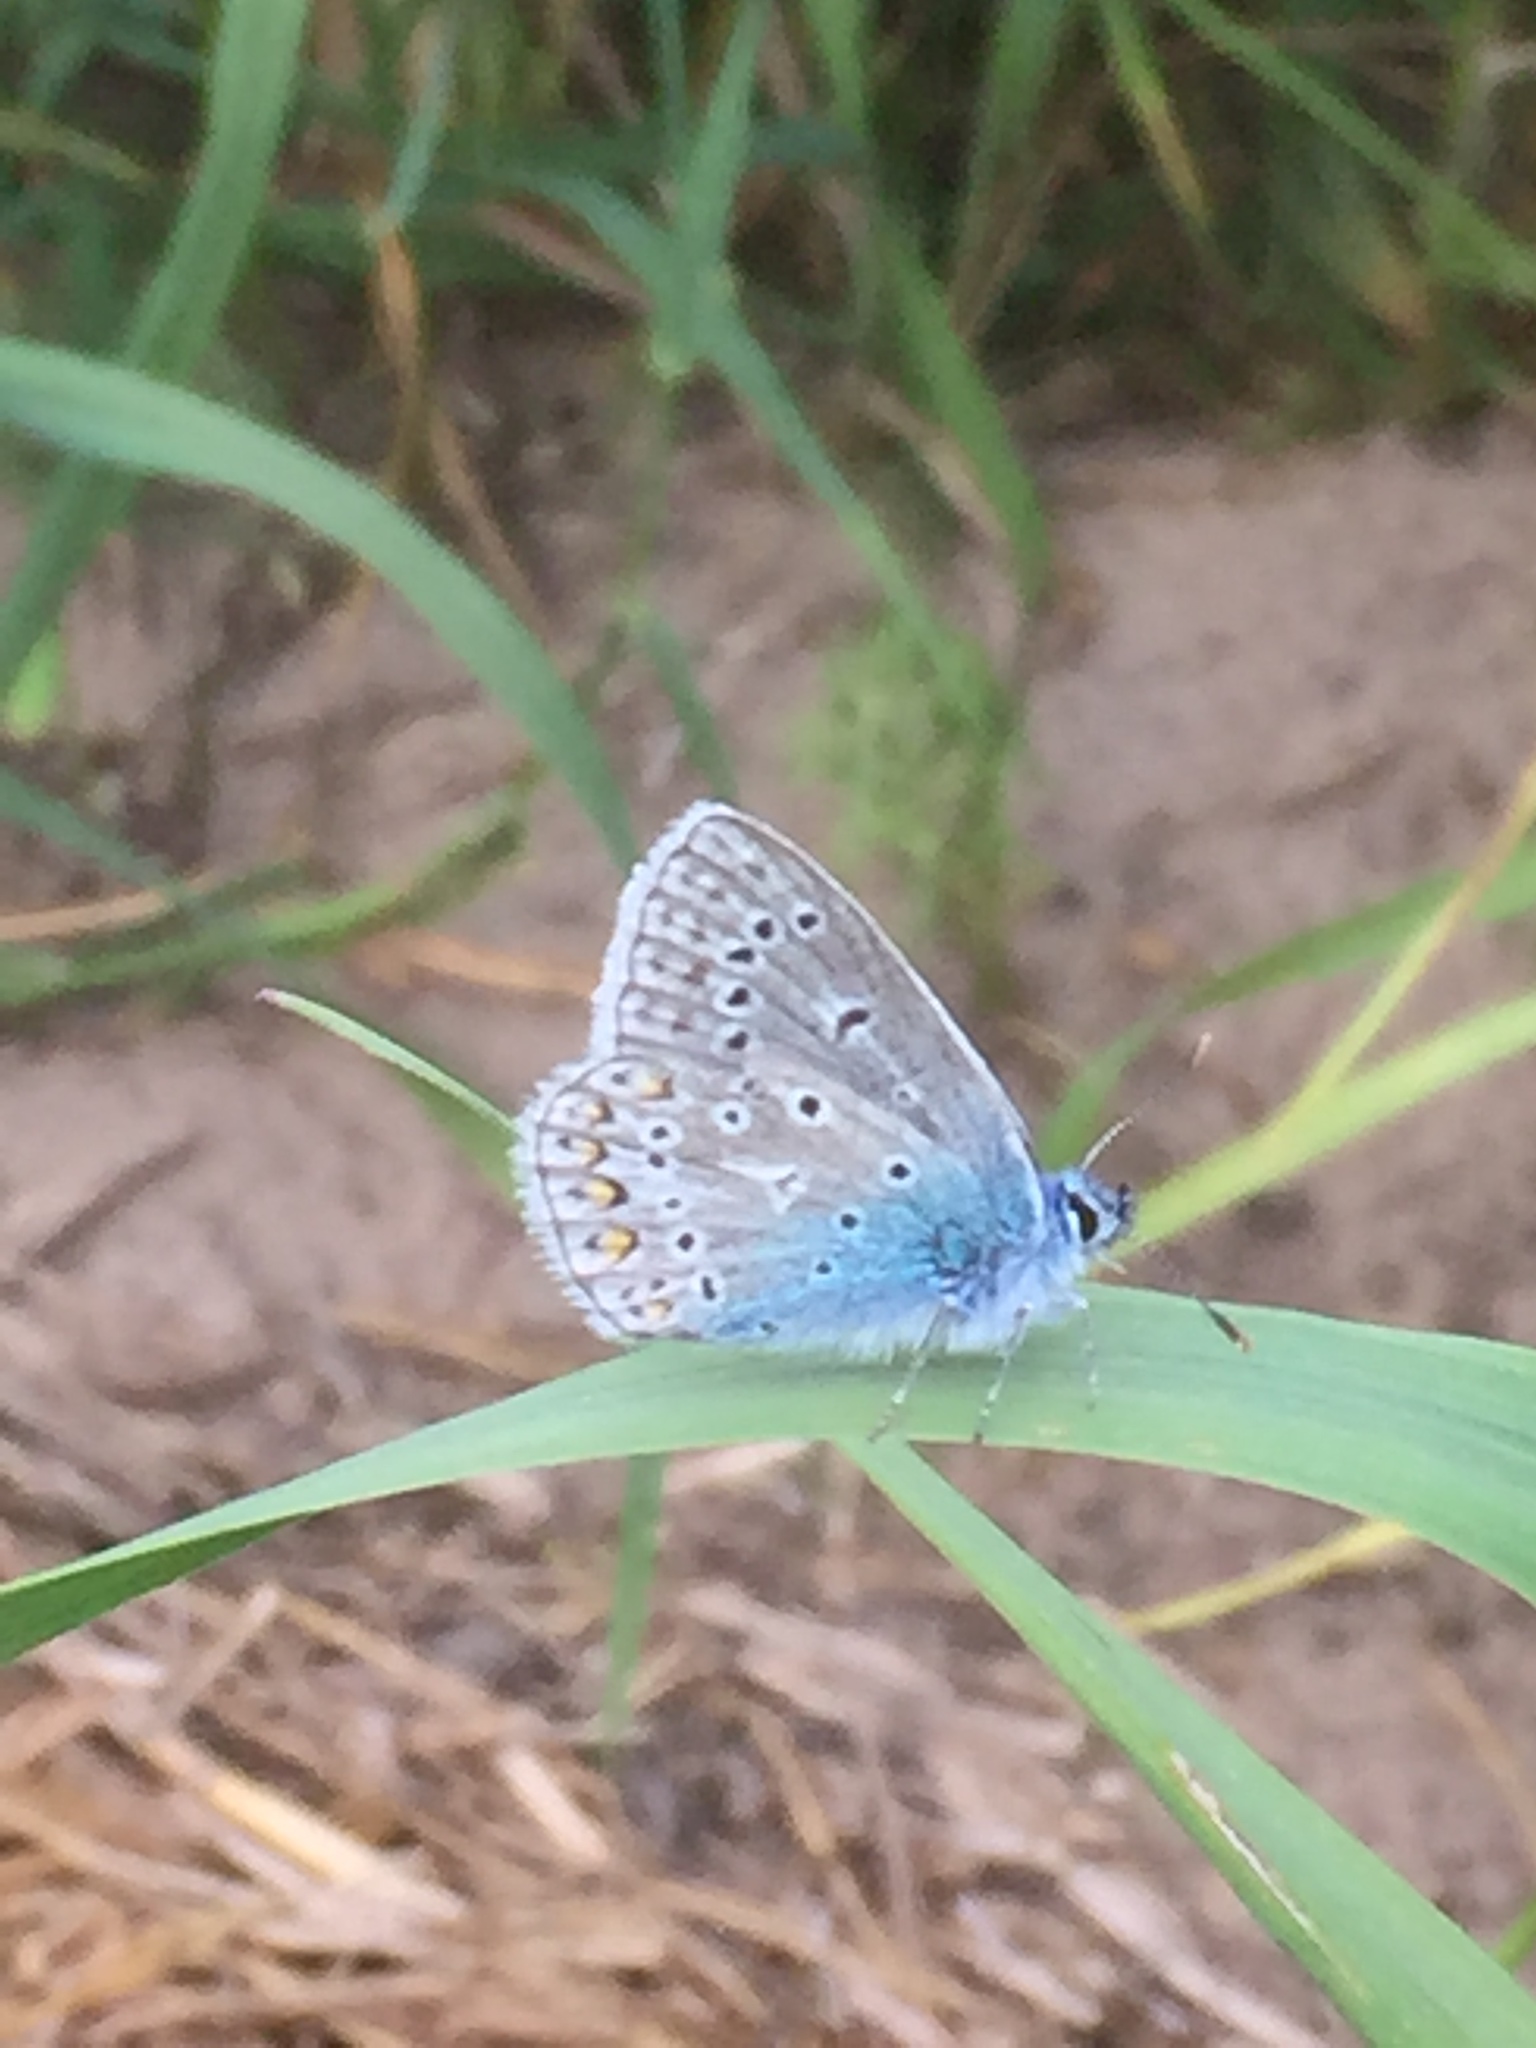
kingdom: Animalia
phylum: Arthropoda
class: Insecta
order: Lepidoptera
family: Lycaenidae
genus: Polyommatus
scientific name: Polyommatus icarus
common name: Common blue
